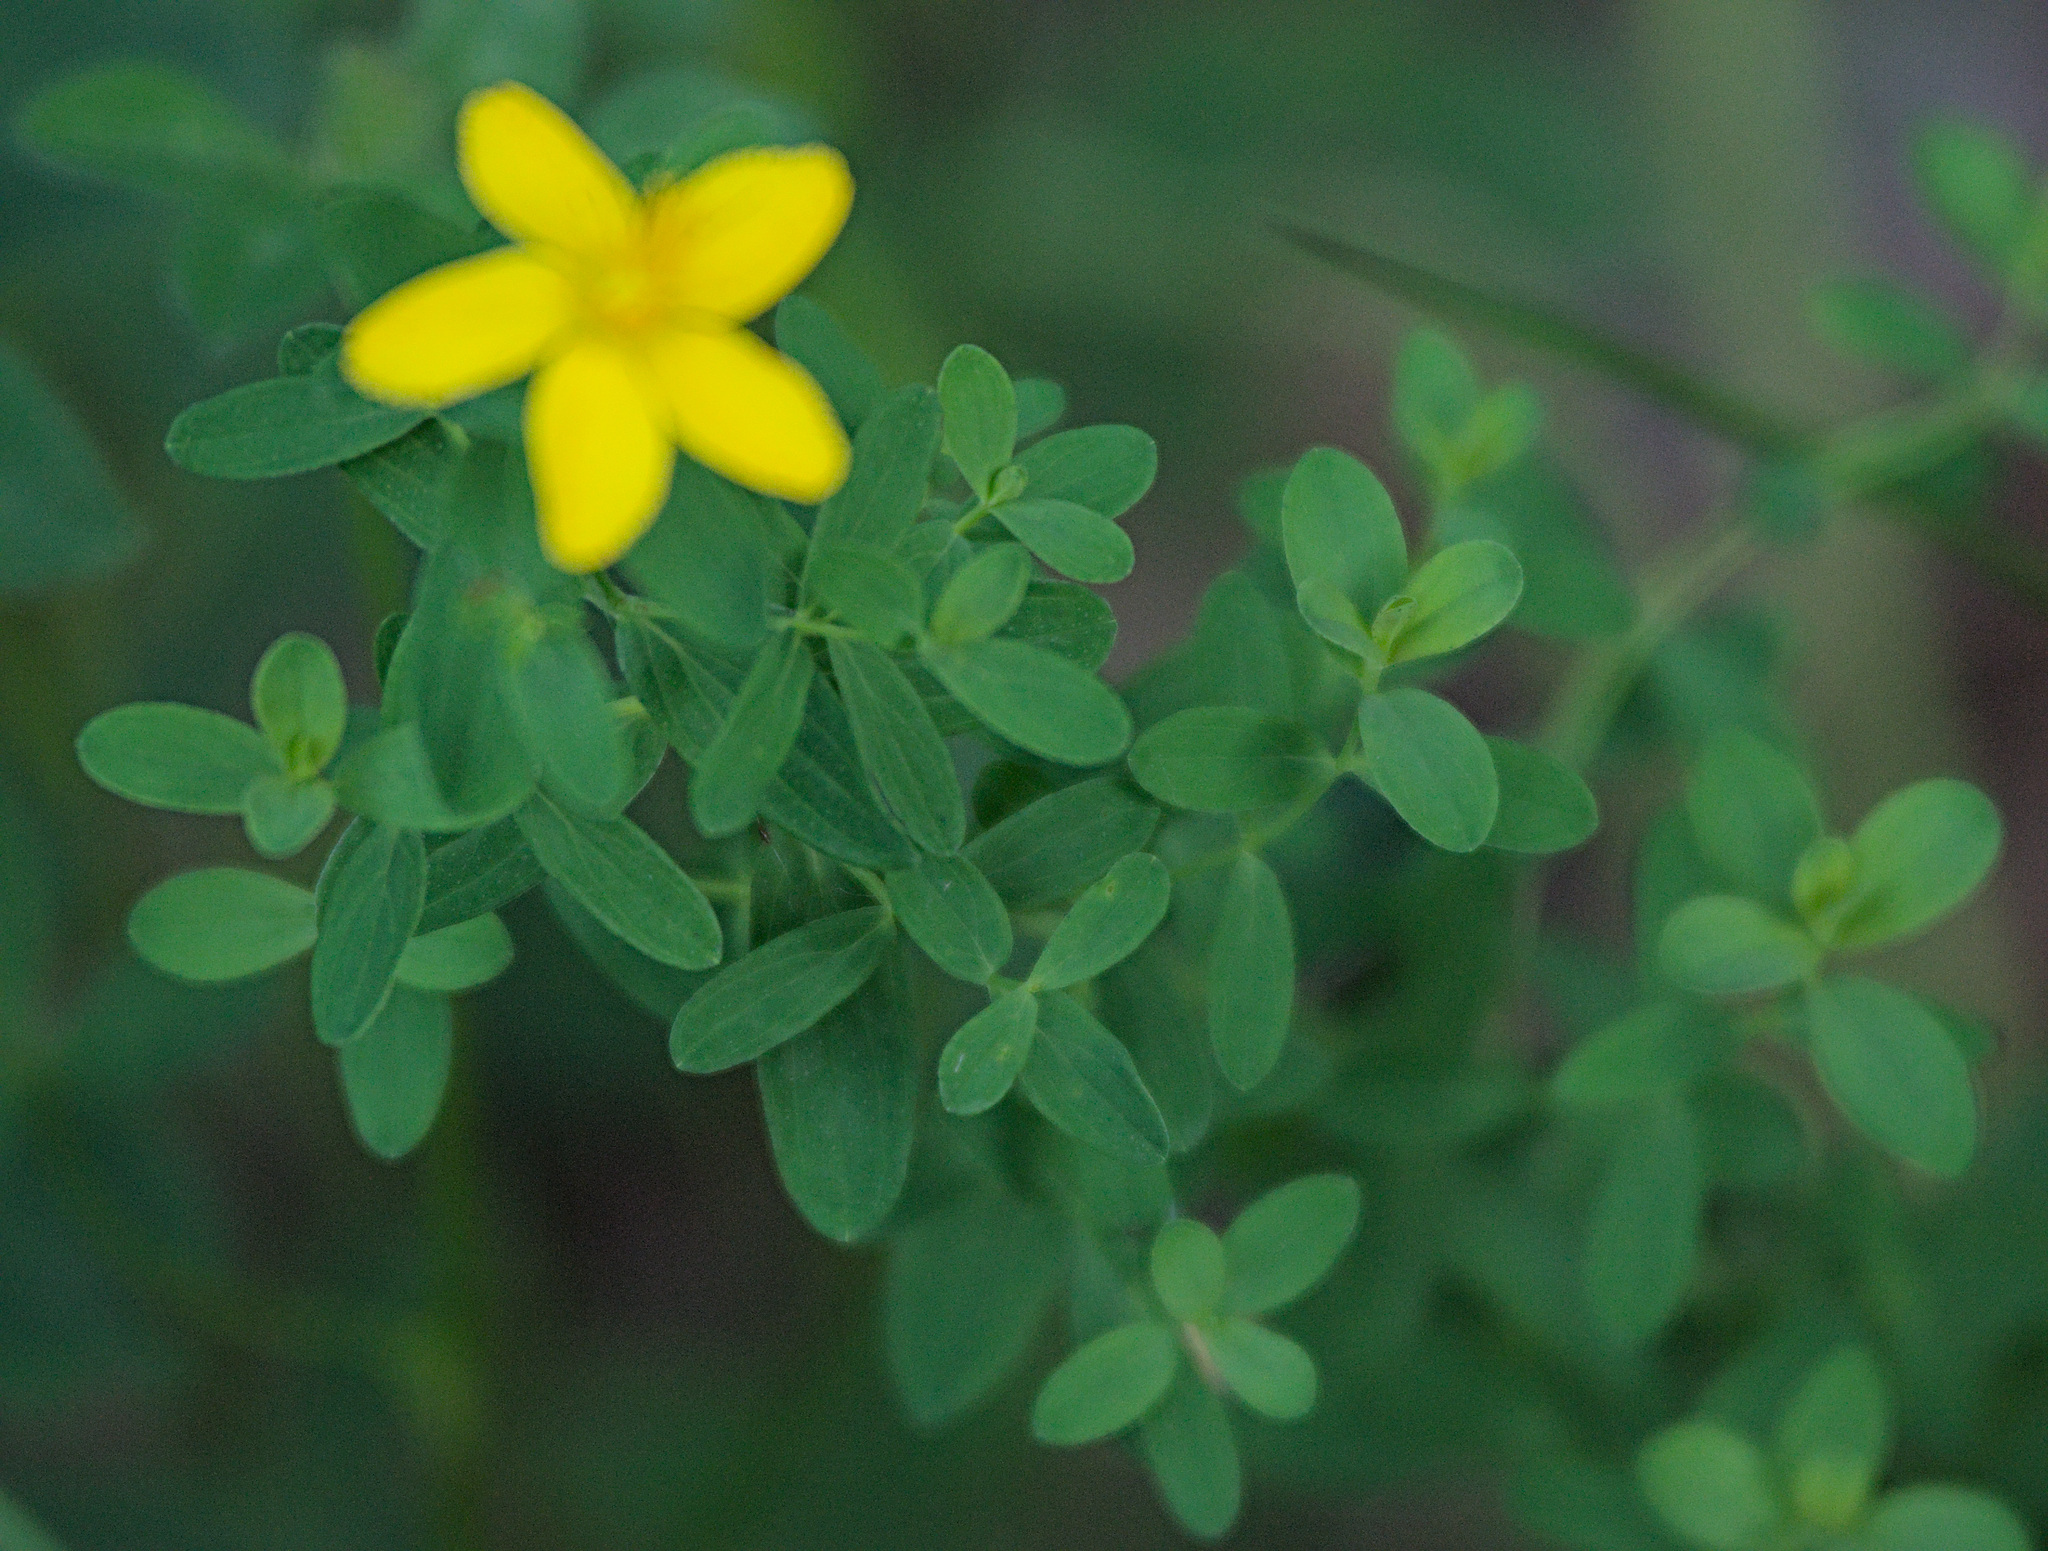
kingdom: Plantae
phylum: Tracheophyta
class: Magnoliopsida
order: Malpighiales
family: Hypericaceae
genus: Hypericum
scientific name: Hypericum perforatum
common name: Common st. johnswort
